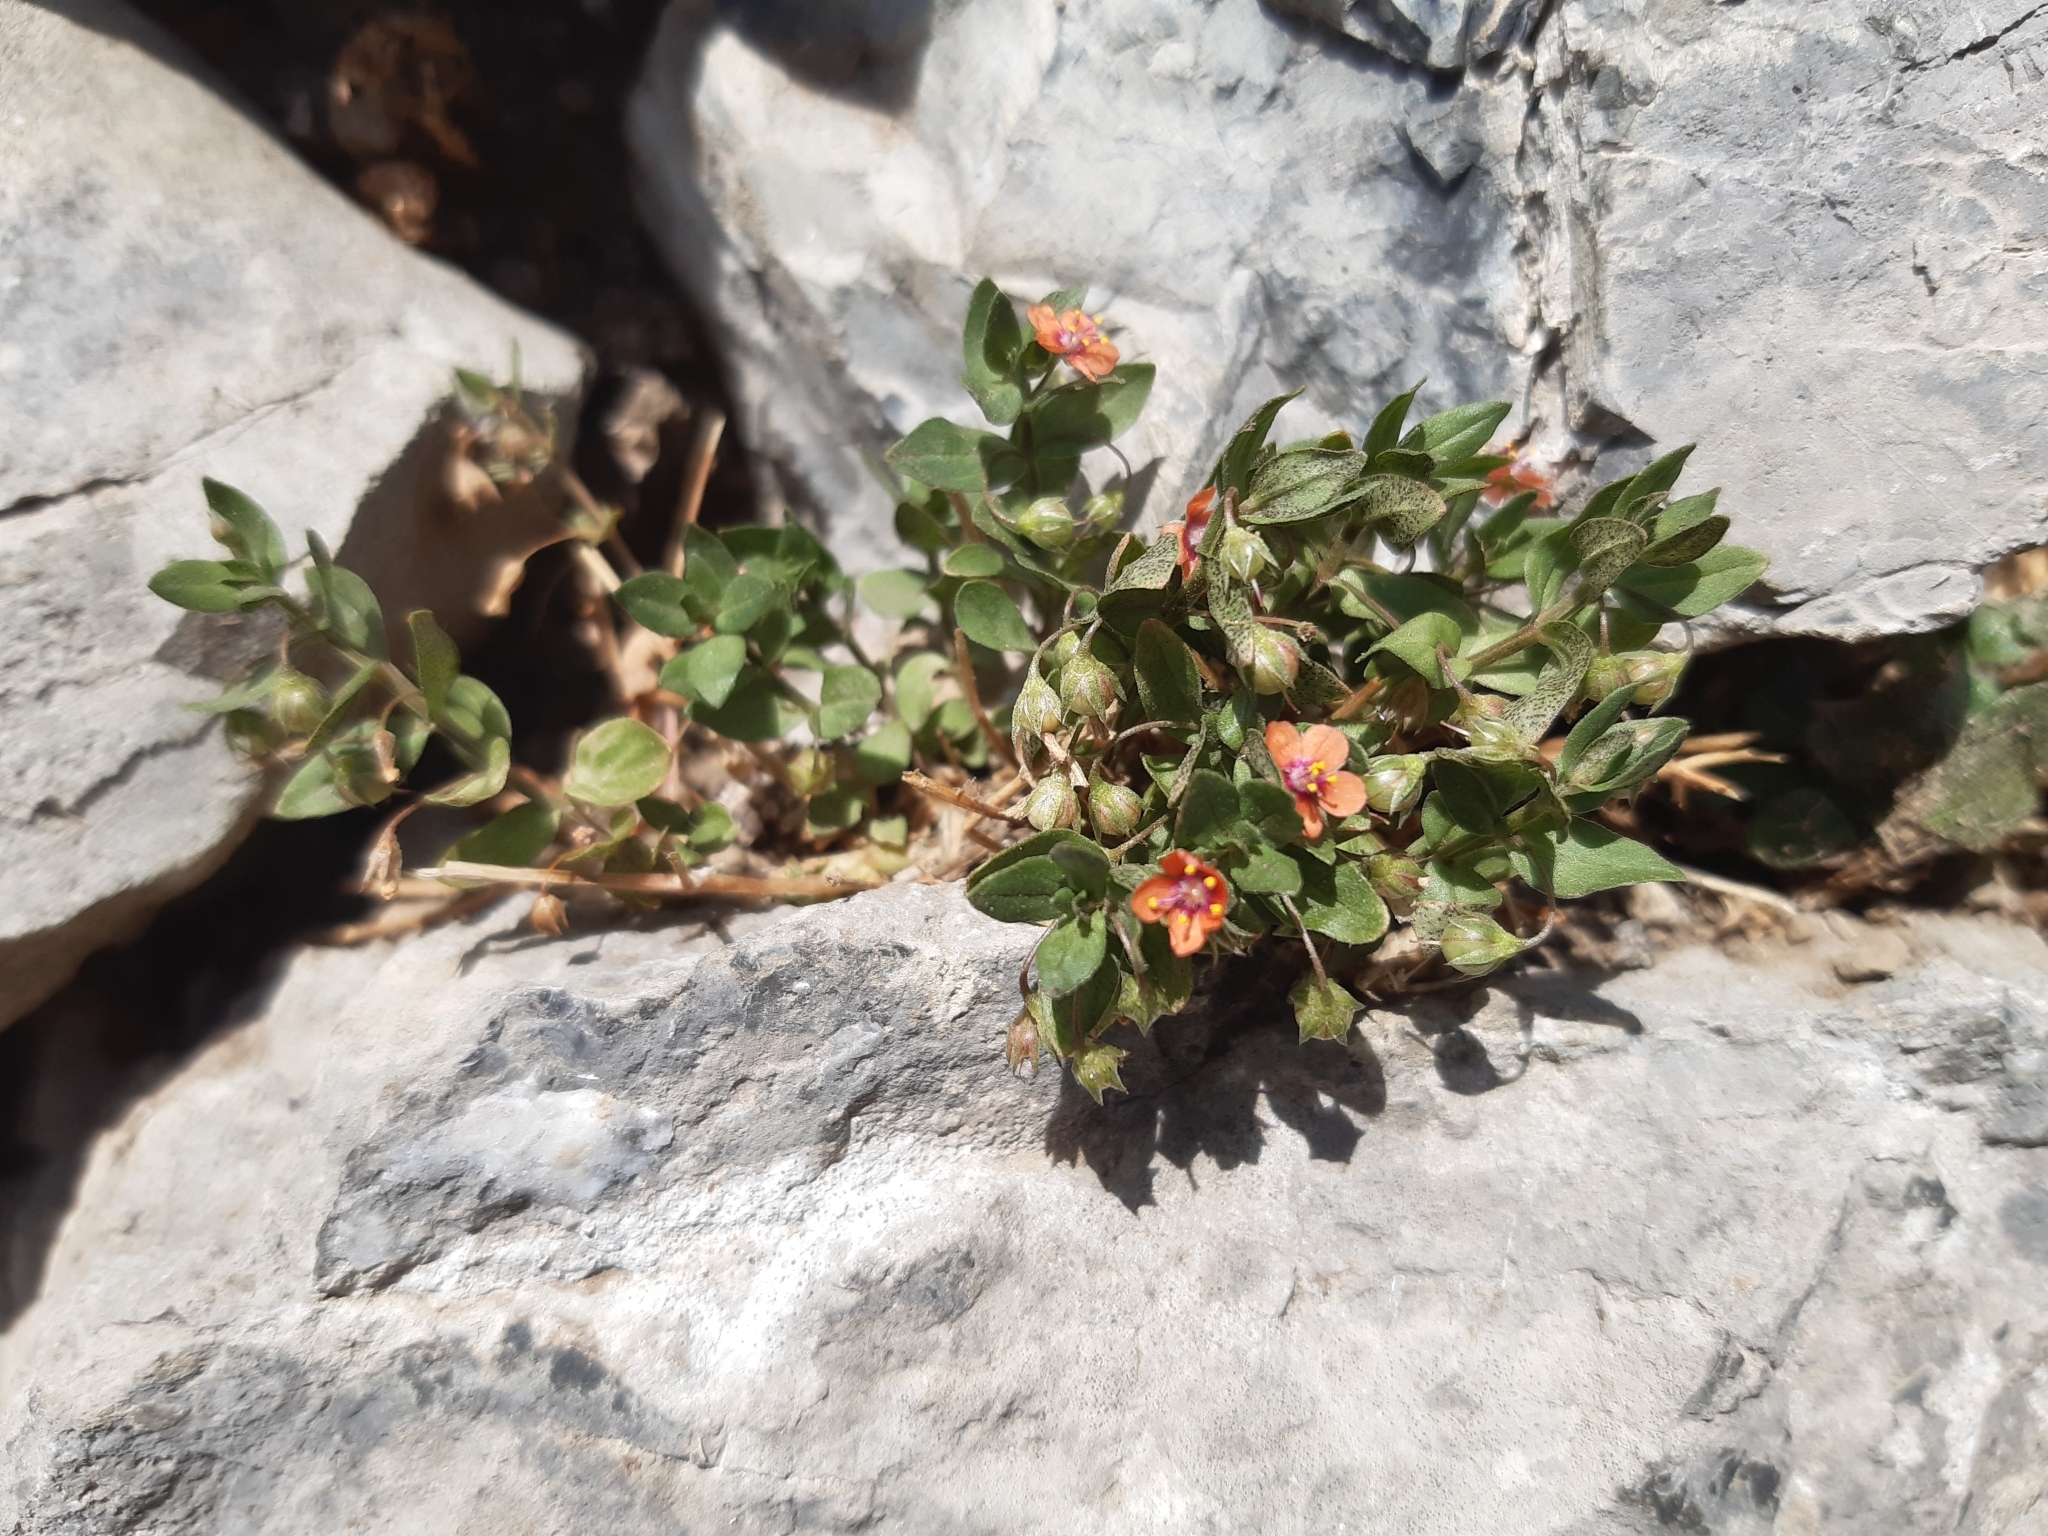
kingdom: Plantae
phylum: Tracheophyta
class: Magnoliopsida
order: Ericales
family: Primulaceae
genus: Lysimachia
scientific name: Lysimachia arvensis
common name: Scarlet pimpernel
